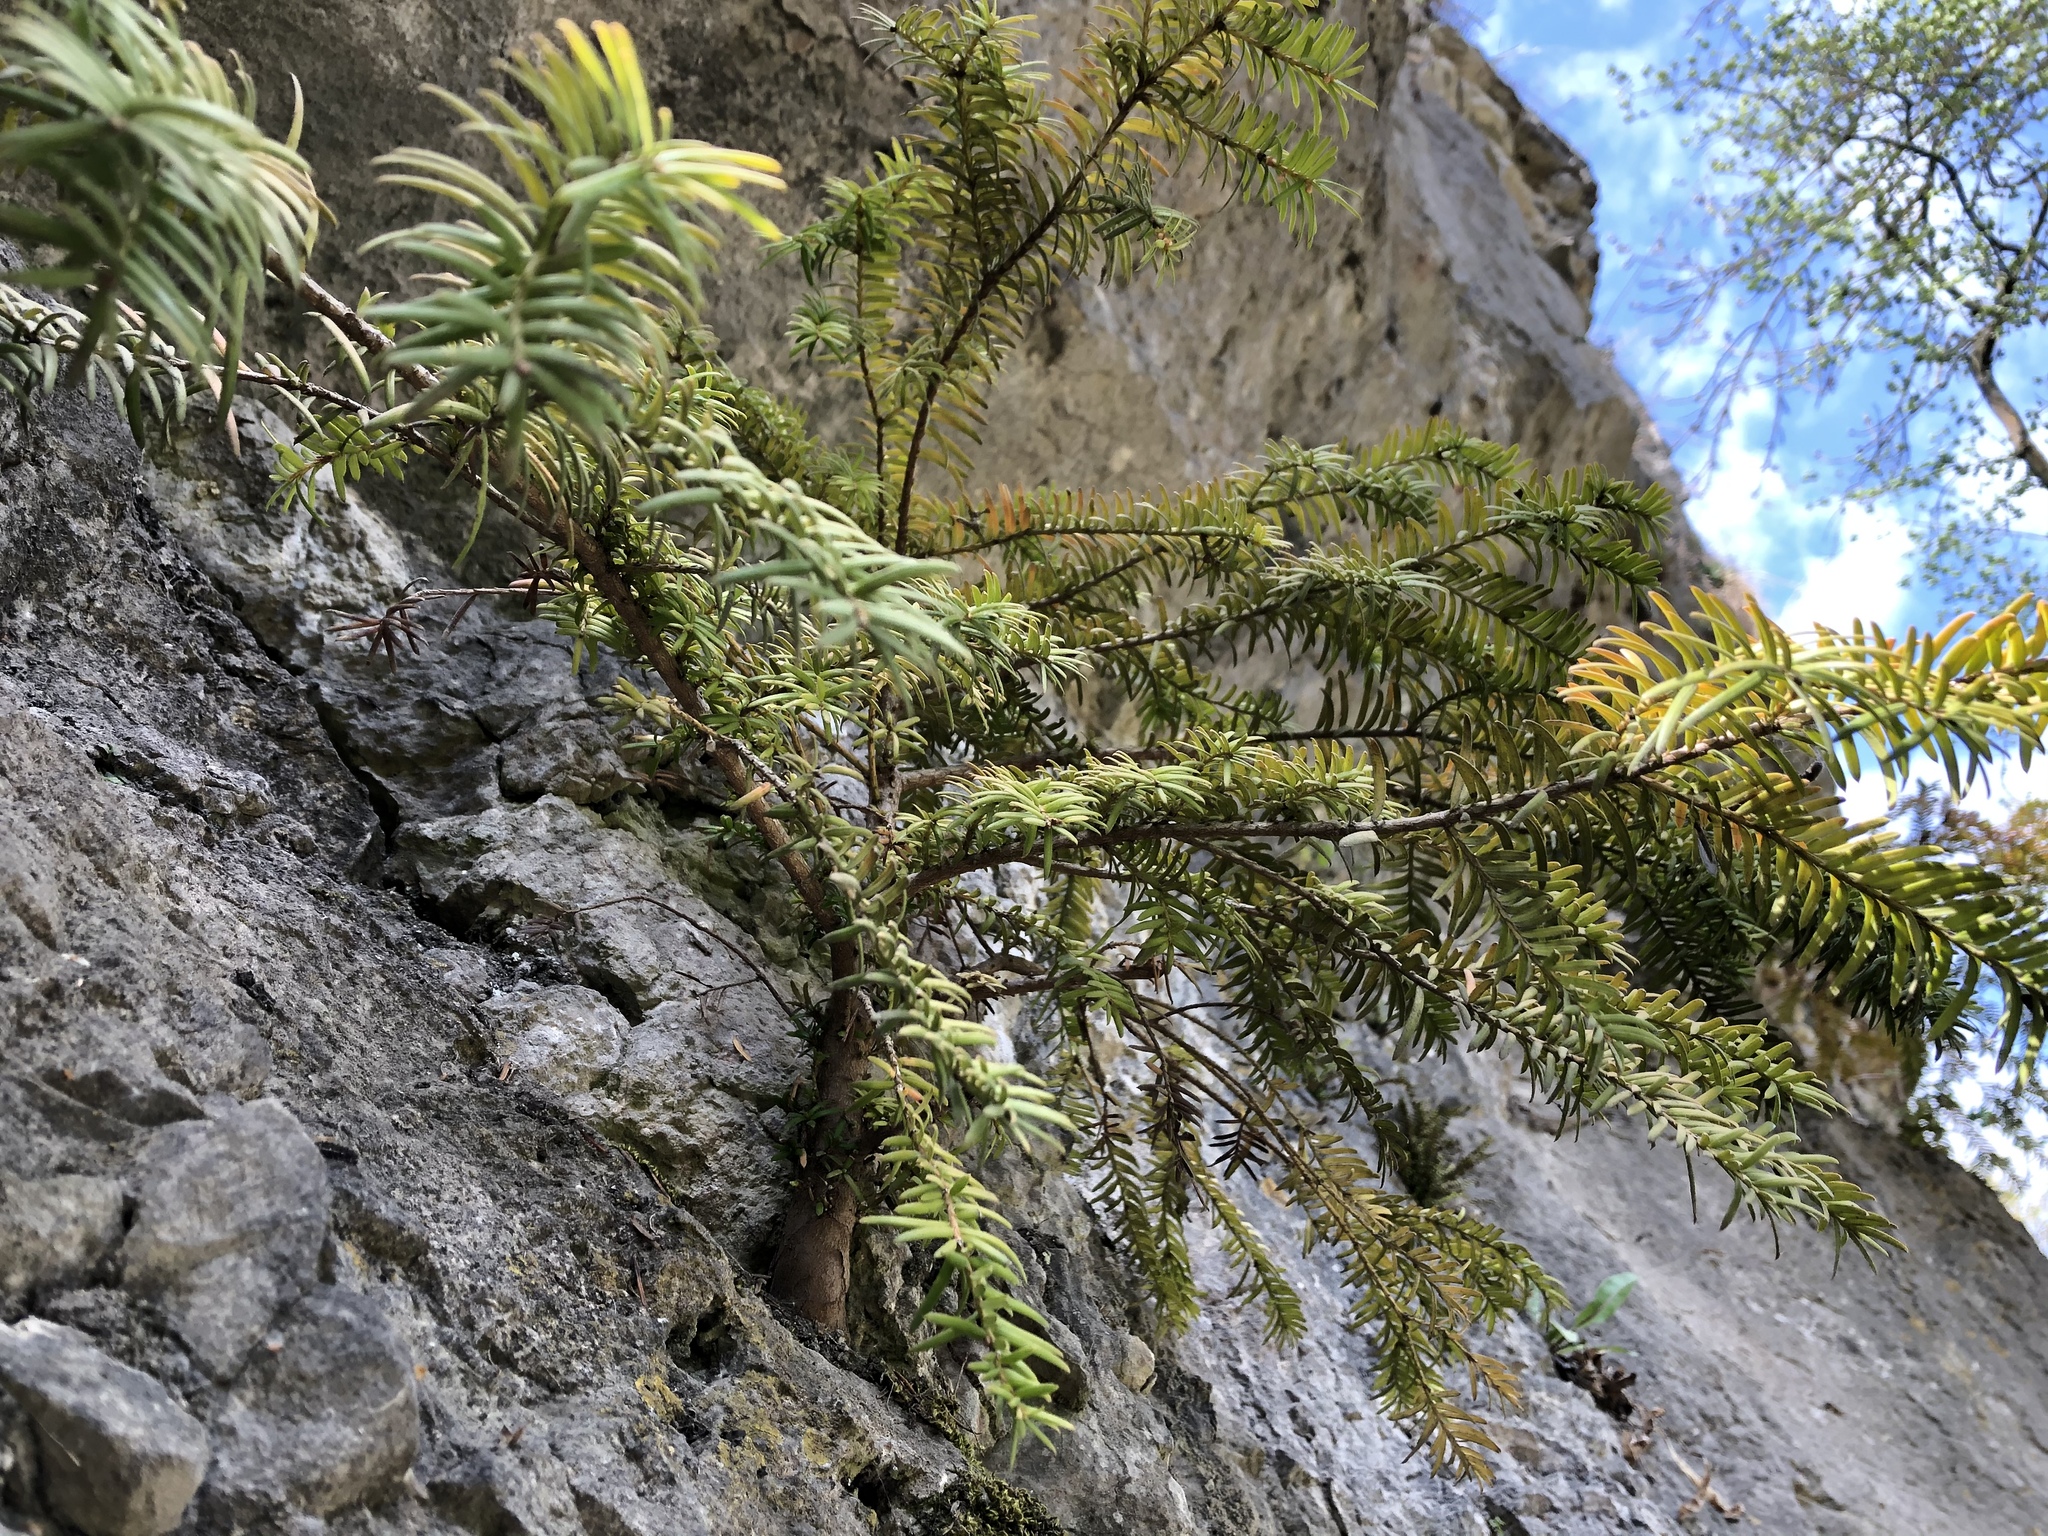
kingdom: Plantae
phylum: Tracheophyta
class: Pinopsida
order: Pinales
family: Taxaceae
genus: Taxus
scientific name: Taxus baccata
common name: Yew
